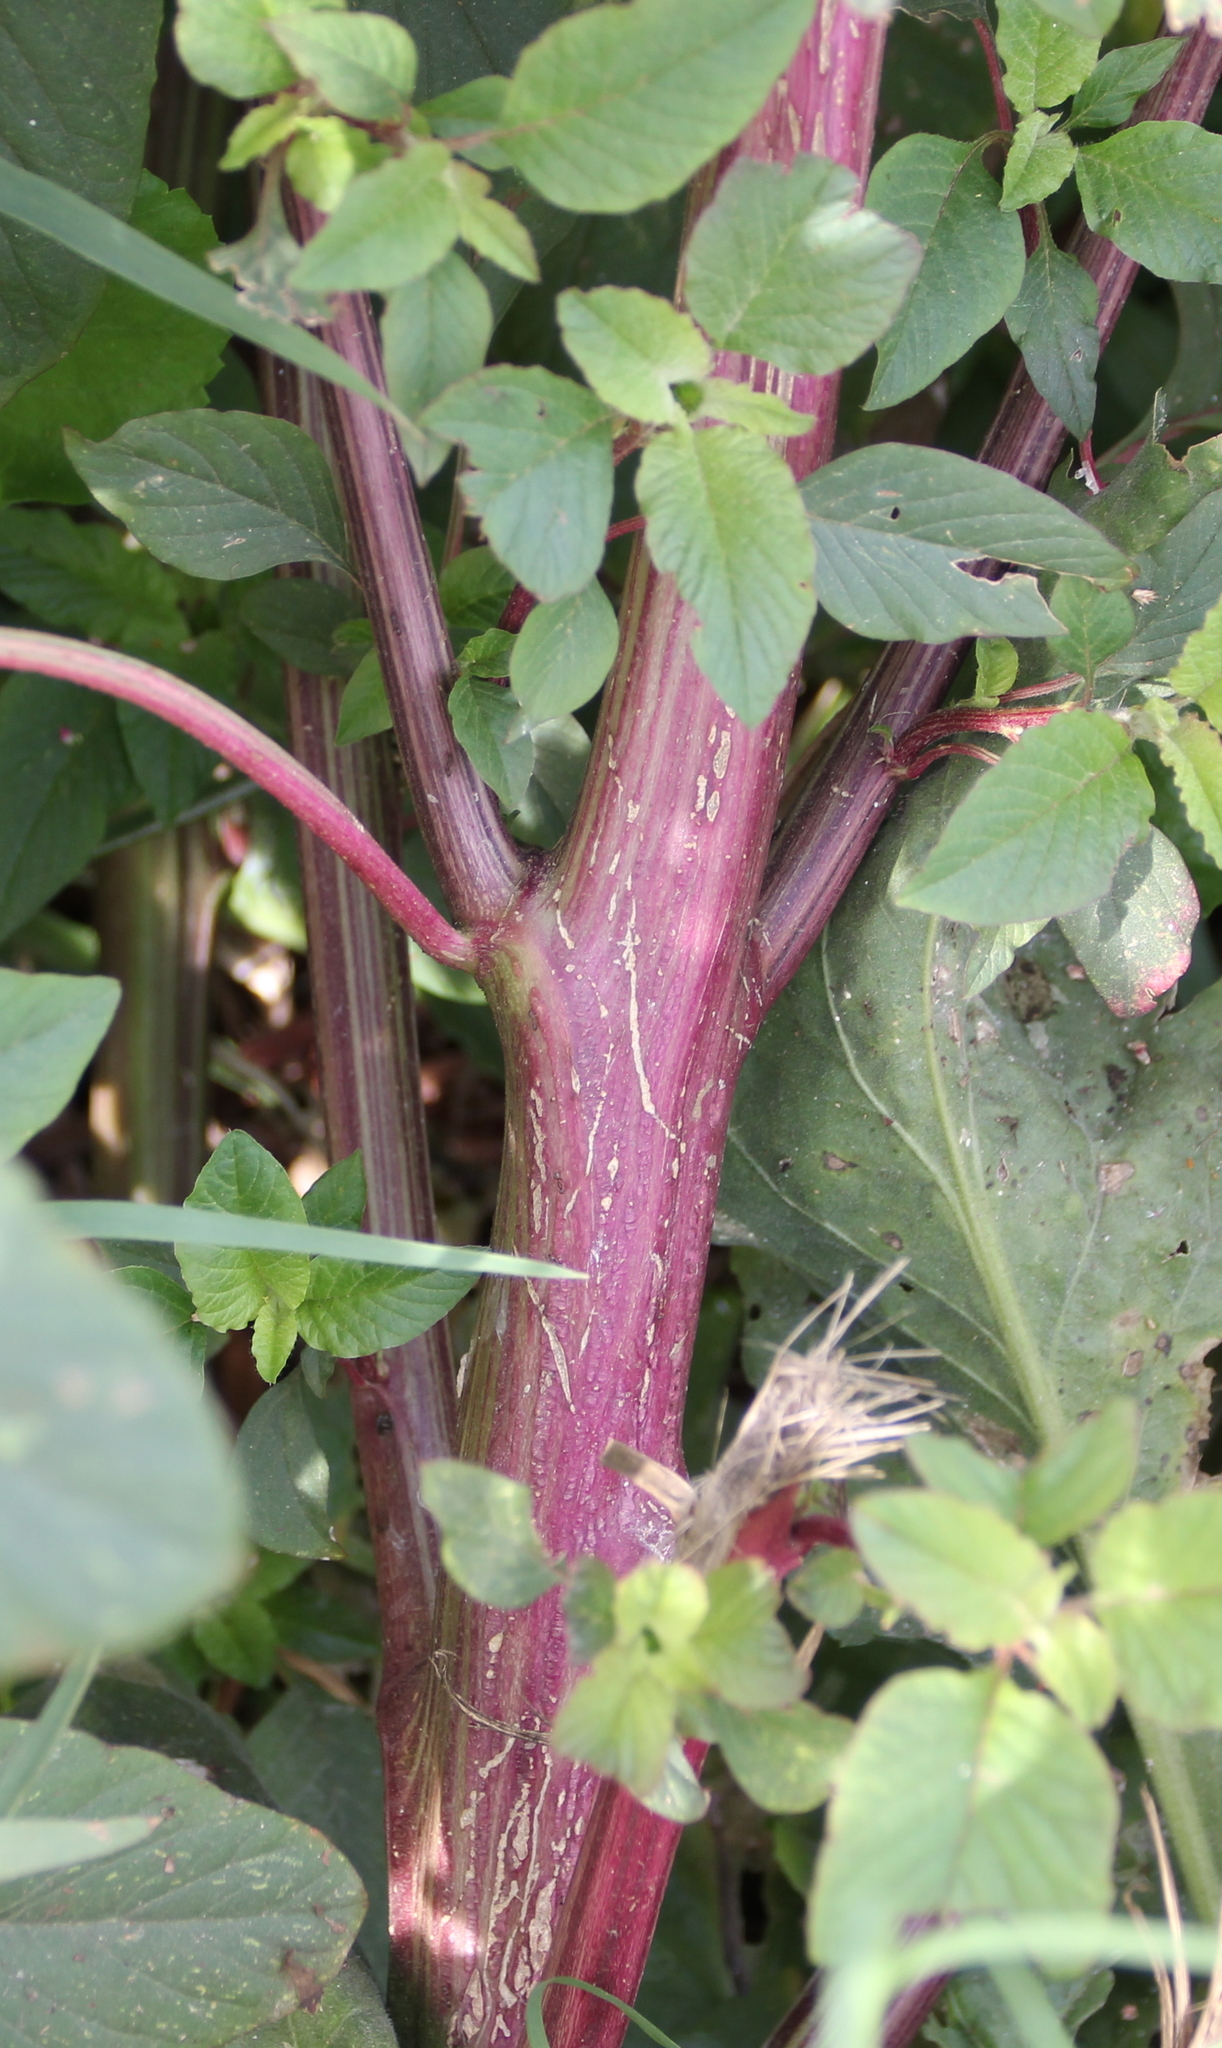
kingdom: Plantae
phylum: Tracheophyta
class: Magnoliopsida
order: Caryophyllales
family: Amaranthaceae
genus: Amaranthus
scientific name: Amaranthus cruentus
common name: Purple amaranth
